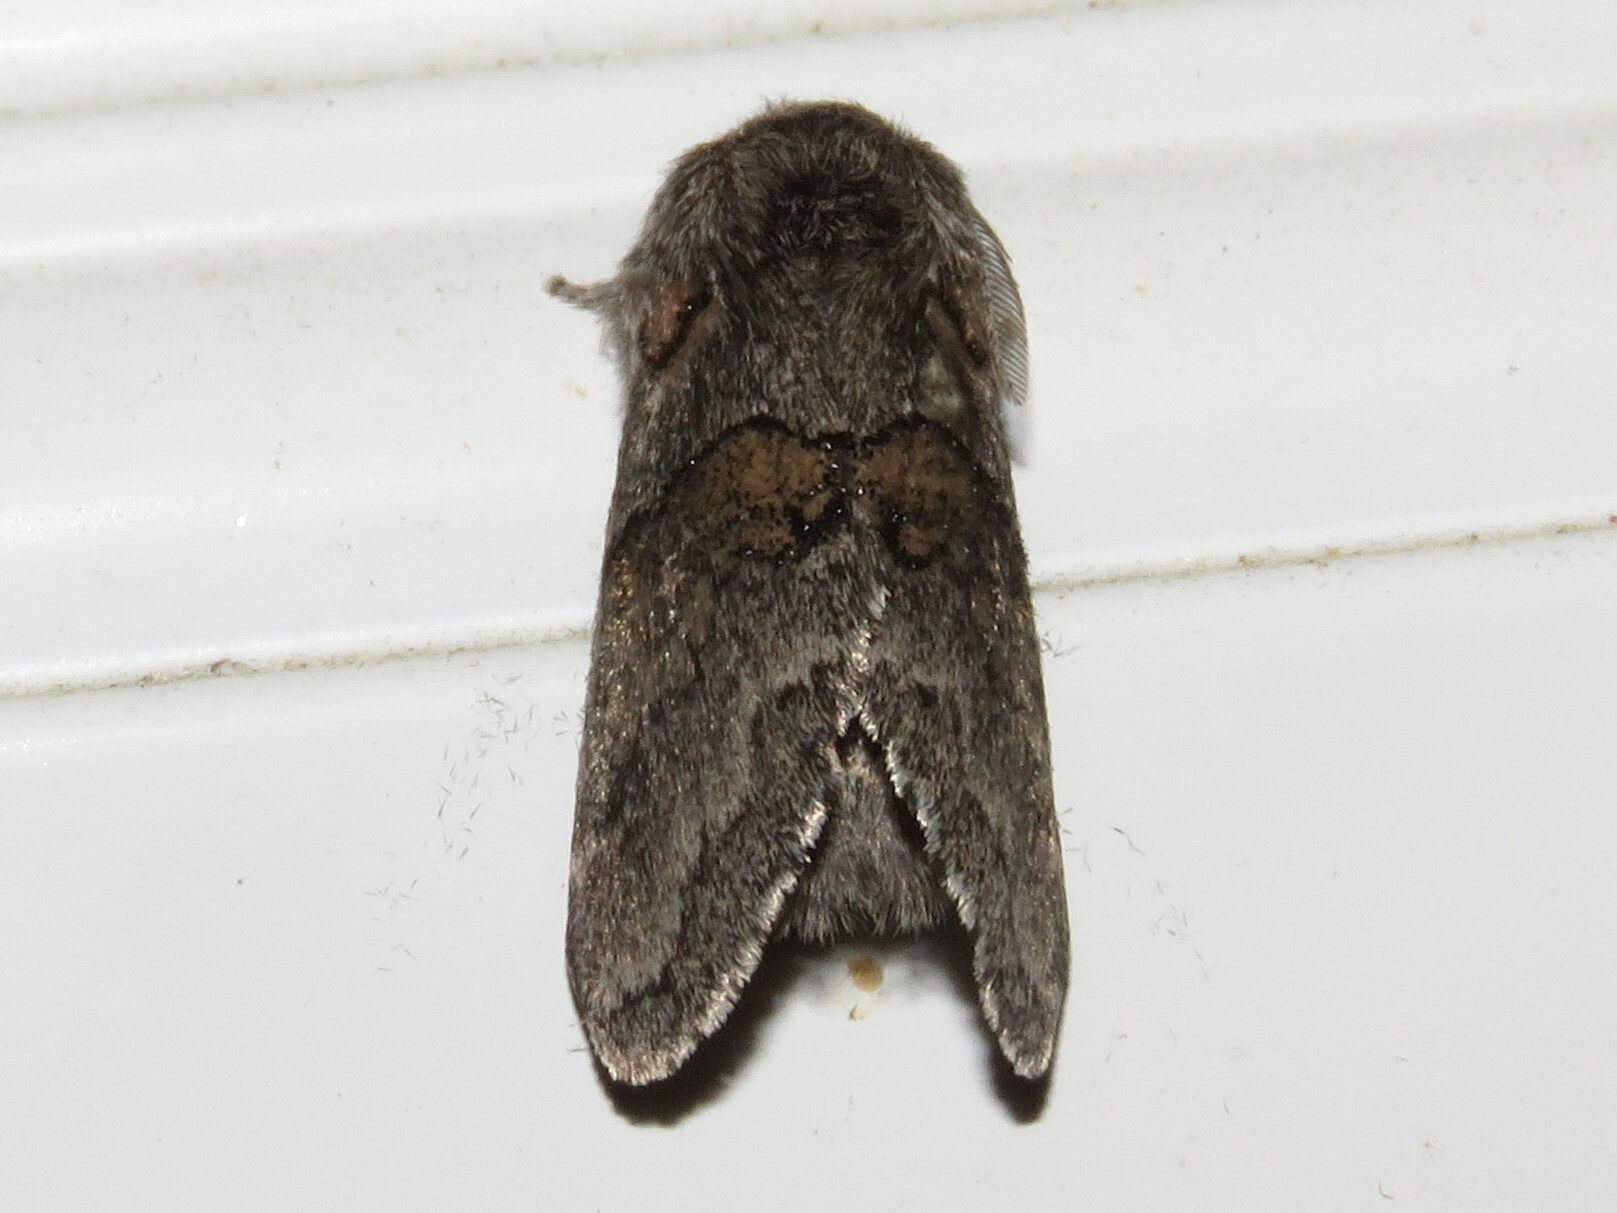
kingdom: Animalia
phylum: Arthropoda
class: Insecta
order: Lepidoptera
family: Notodontidae
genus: Gluphisia
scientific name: Gluphisia septentrionis
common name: Common gluphisia
